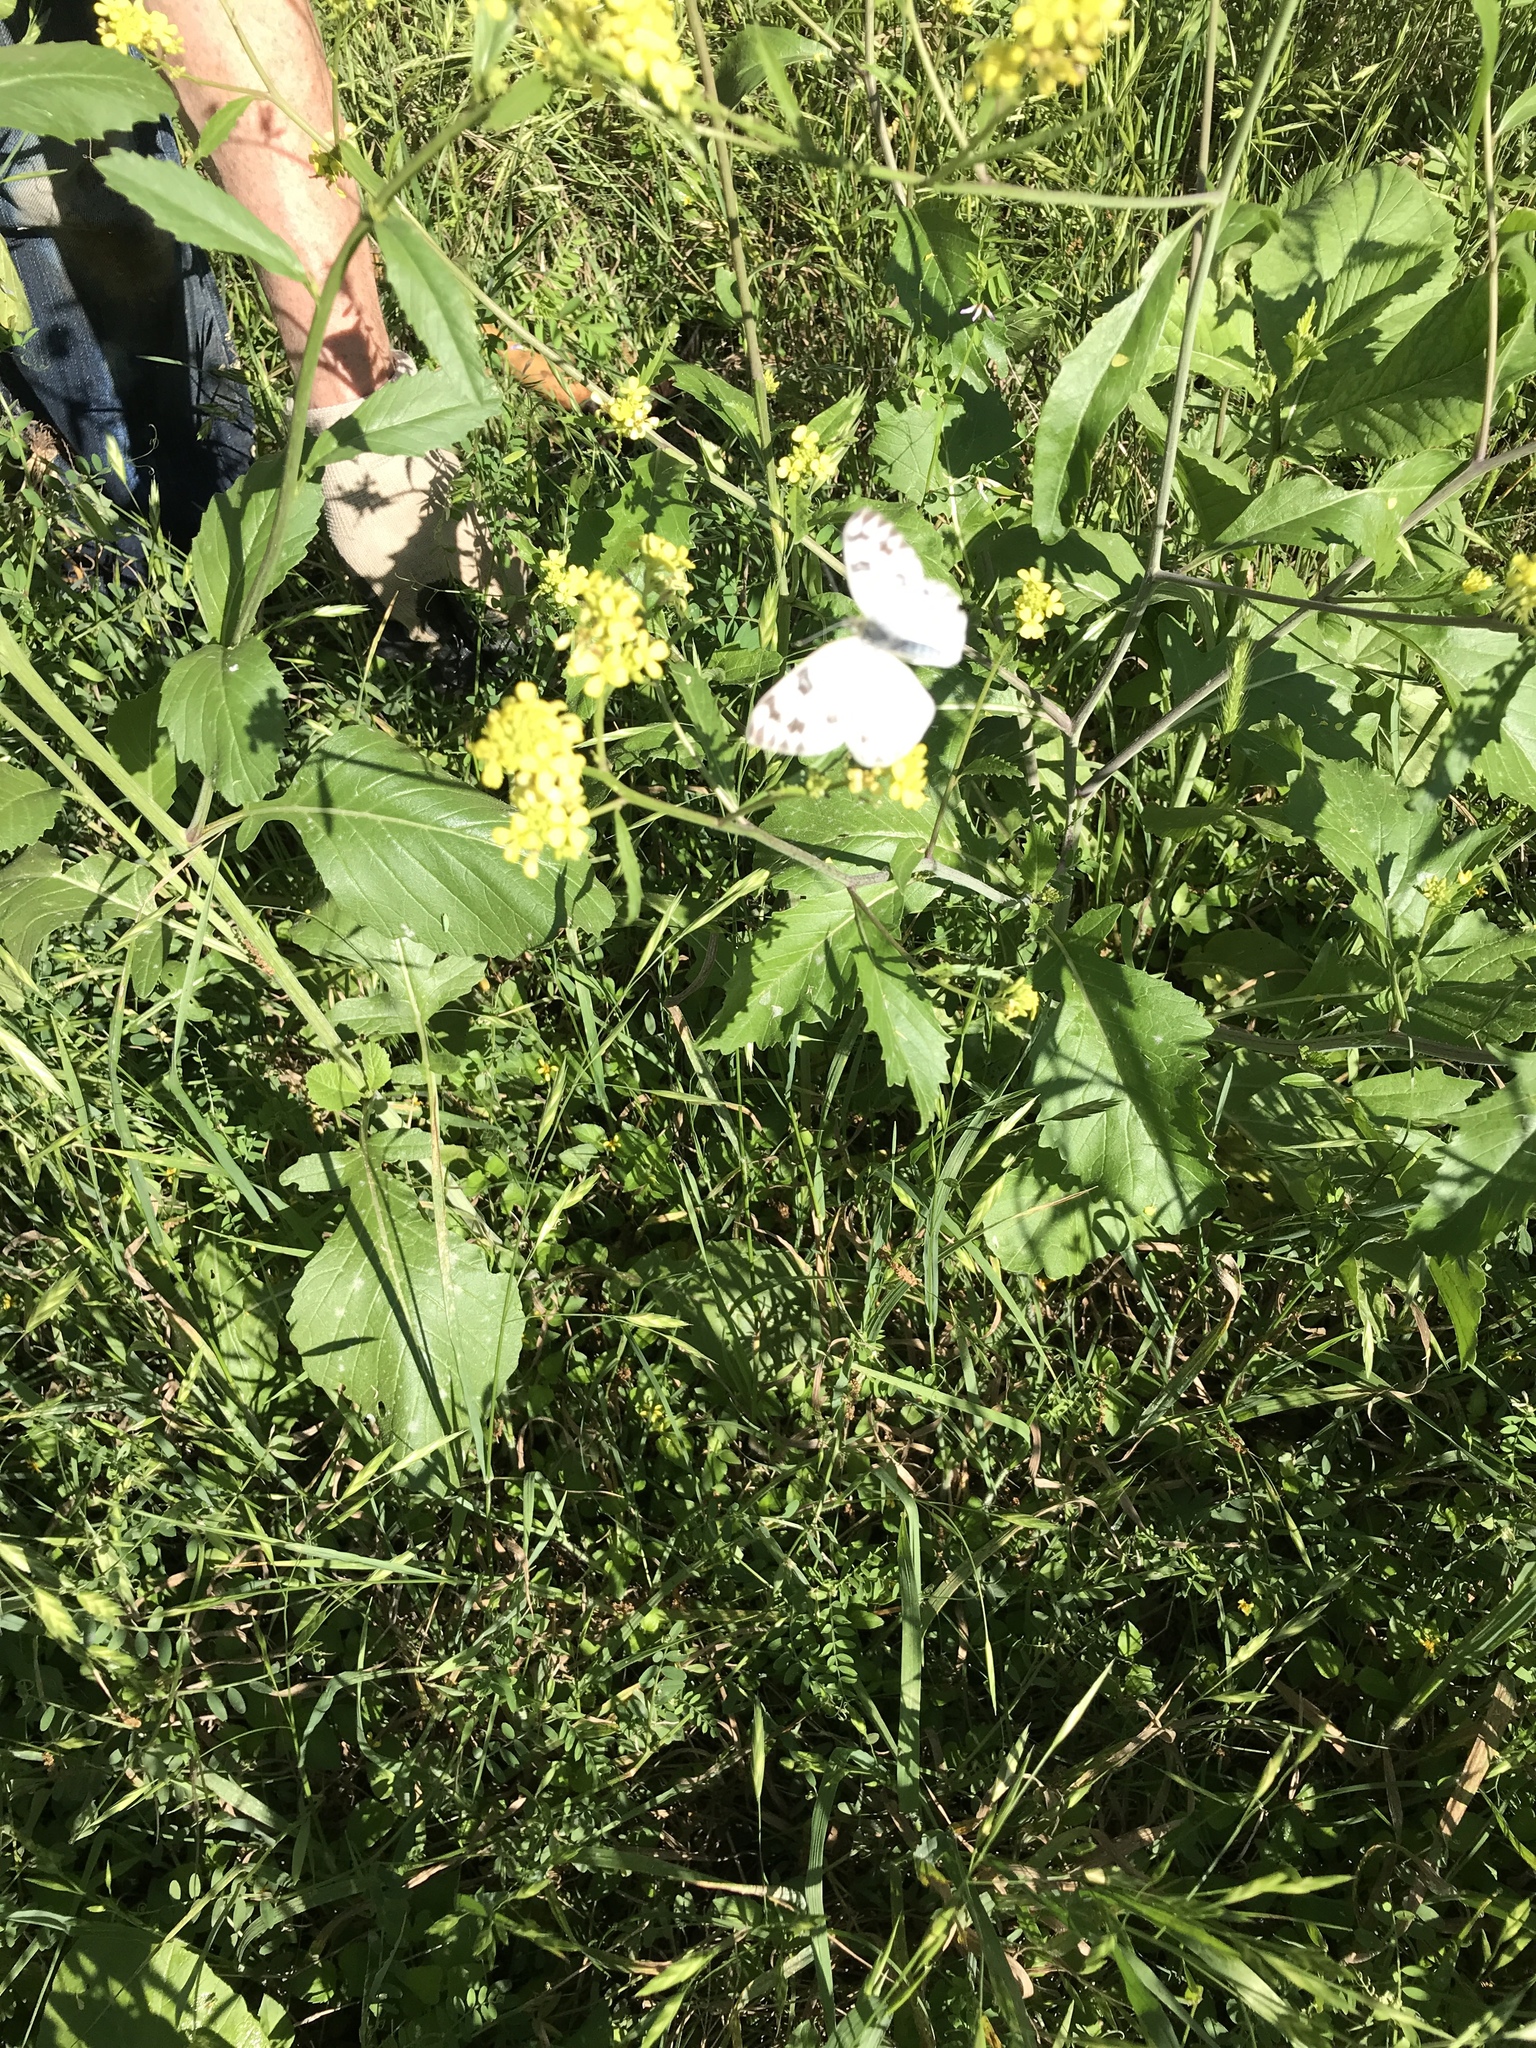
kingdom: Animalia
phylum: Arthropoda
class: Insecta
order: Lepidoptera
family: Pieridae
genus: Pontia
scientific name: Pontia protodice
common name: Checkered white
